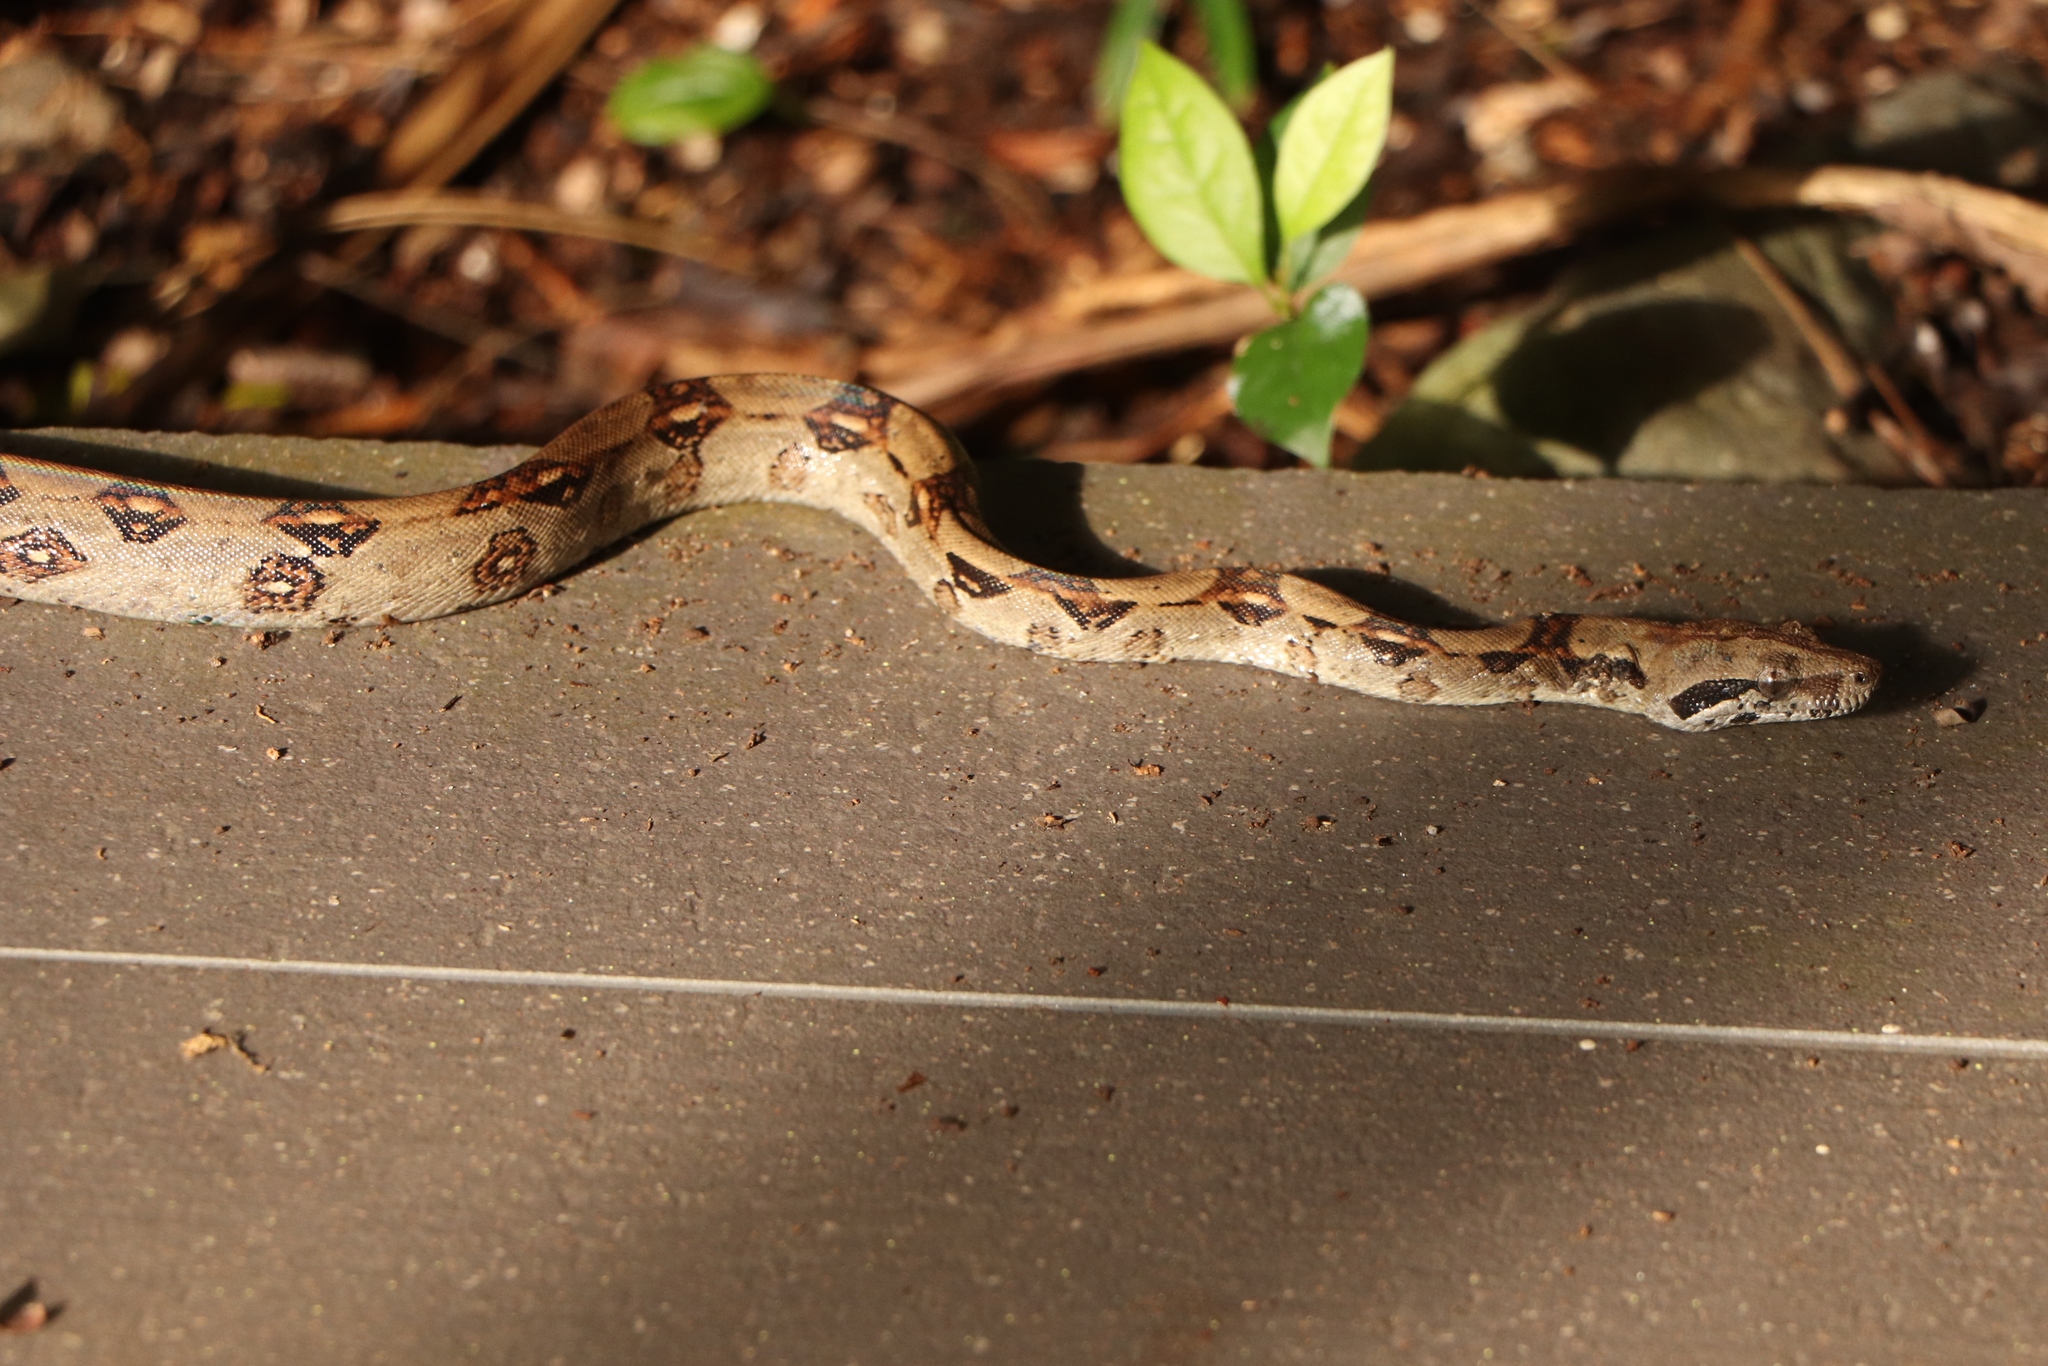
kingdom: Animalia
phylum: Chordata
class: Squamata
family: Boidae
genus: Boa
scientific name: Boa imperator
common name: Central american boa
